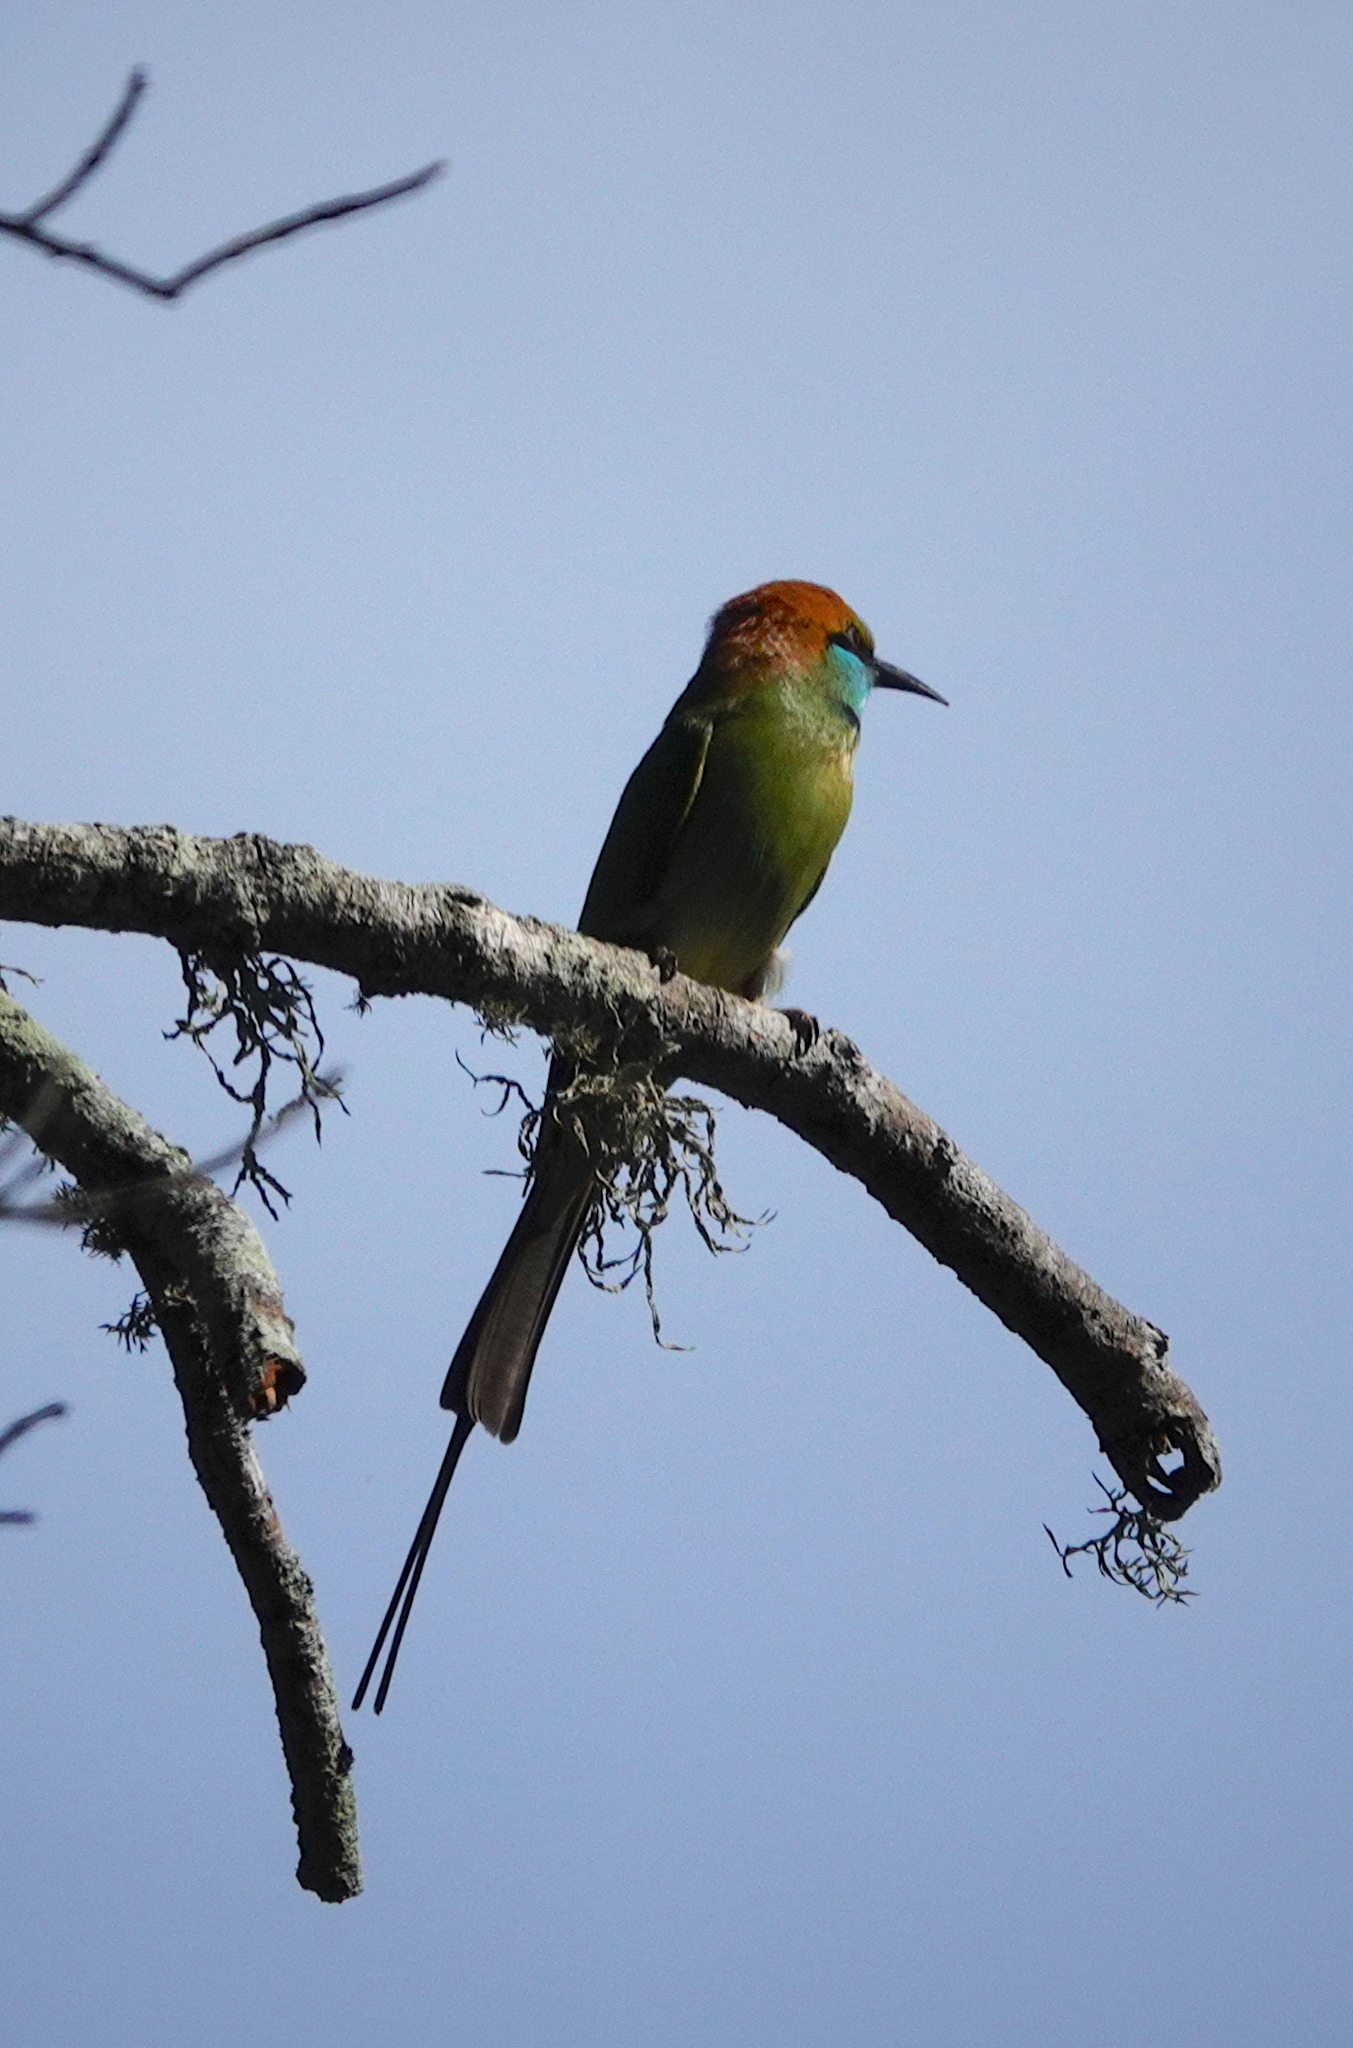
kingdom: Animalia
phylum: Chordata
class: Aves
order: Coraciiformes
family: Meropidae
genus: Merops
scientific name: Merops orientalis
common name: Green bee-eater
